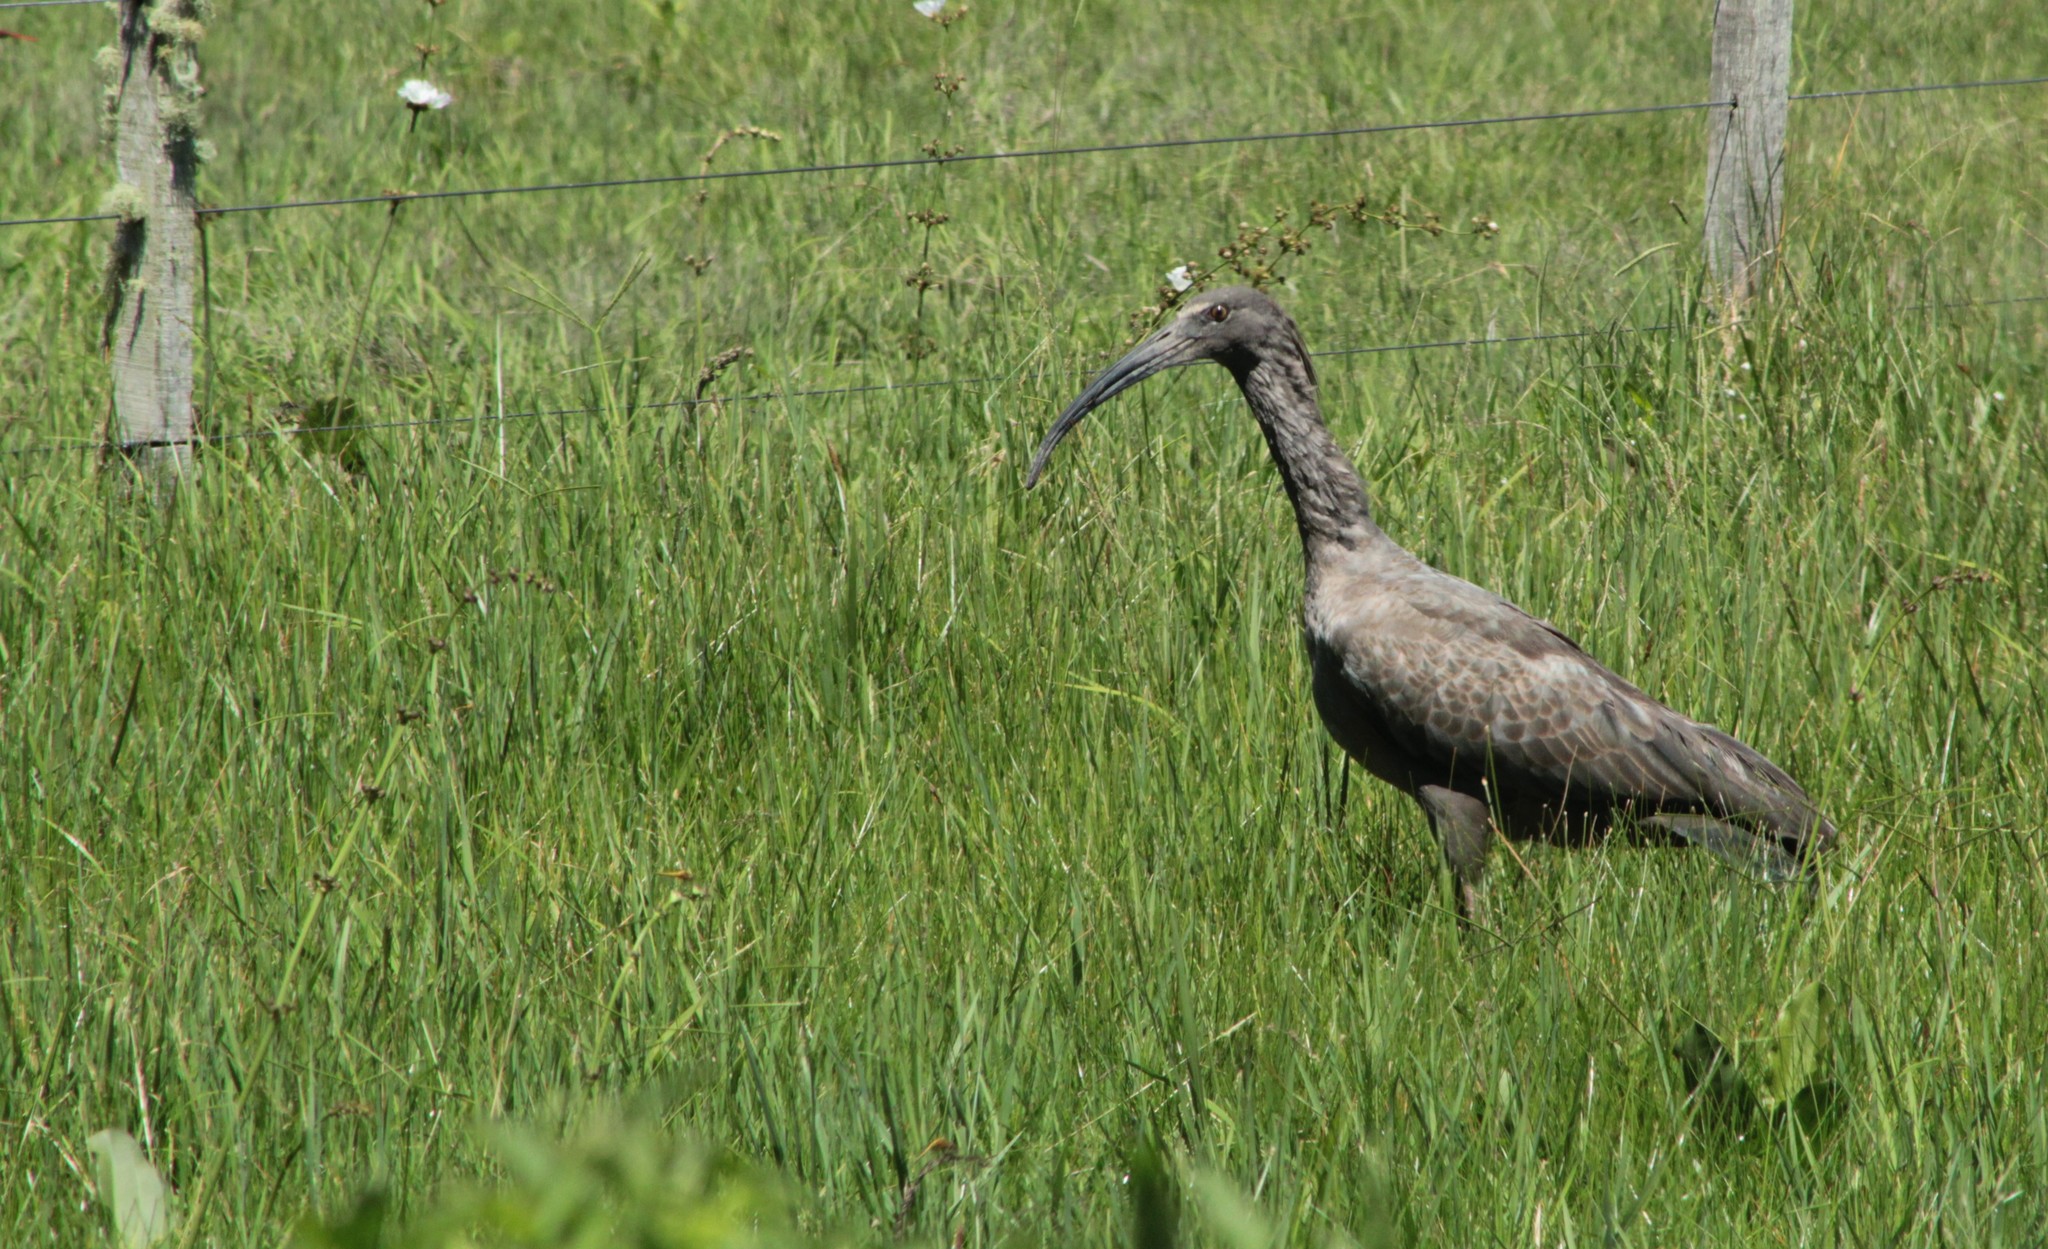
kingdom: Animalia
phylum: Chordata
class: Aves
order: Pelecaniformes
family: Threskiornithidae
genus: Theristicus
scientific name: Theristicus caerulescens
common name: Plumbeous ibis
